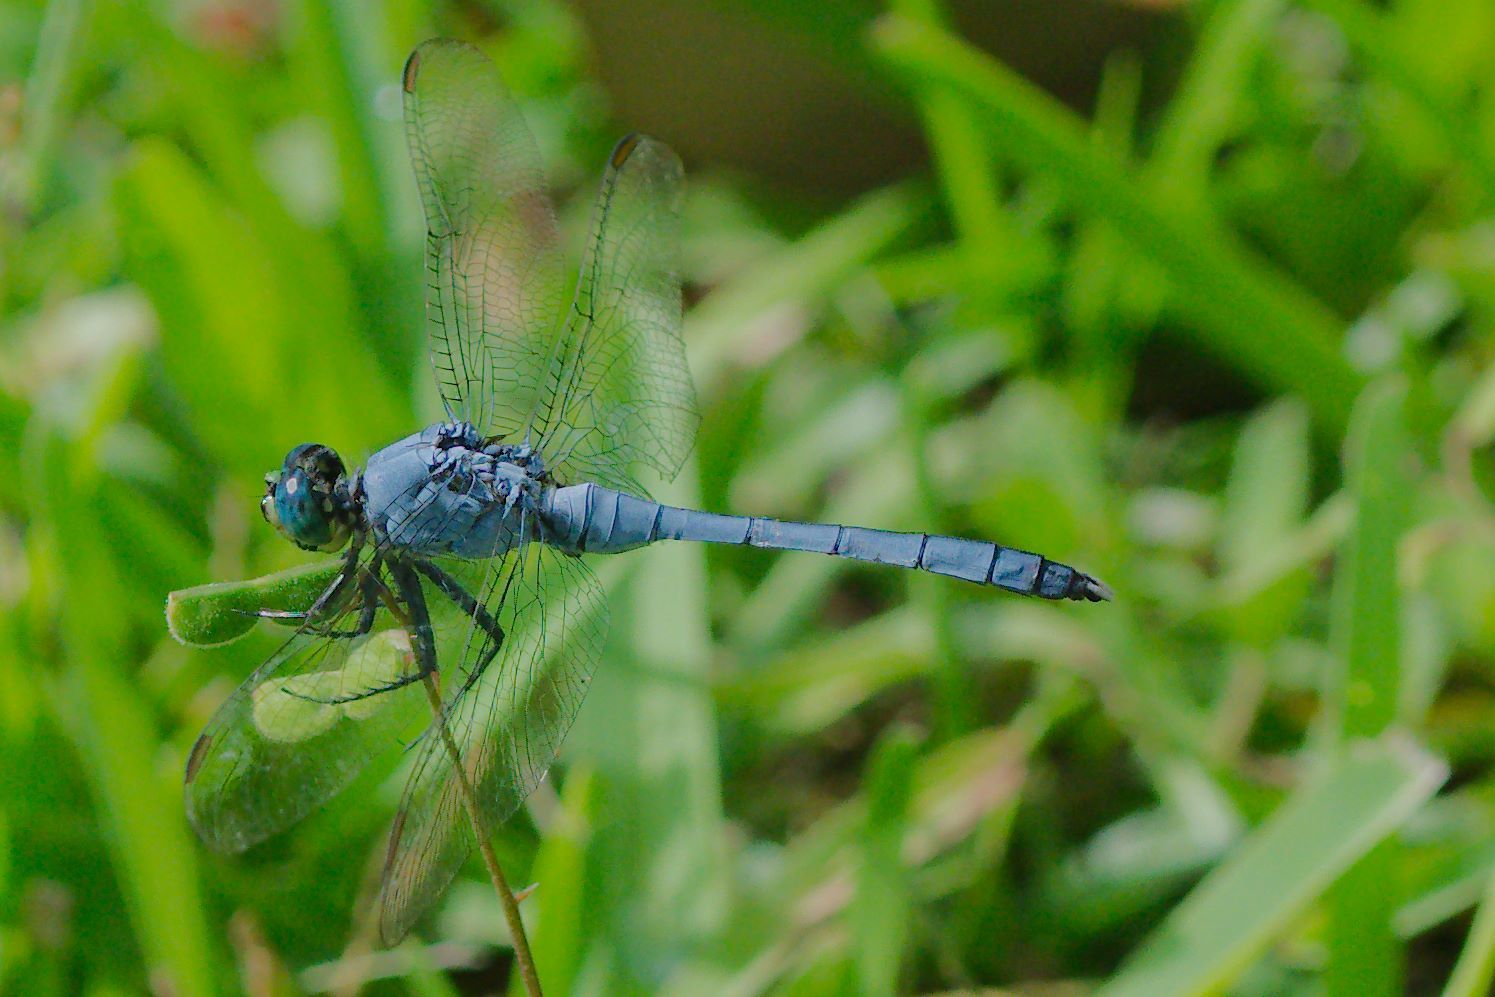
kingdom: Animalia
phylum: Arthropoda
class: Insecta
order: Odonata
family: Libellulidae
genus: Erythemis
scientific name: Erythemis simplicicollis
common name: Eastern pondhawk
